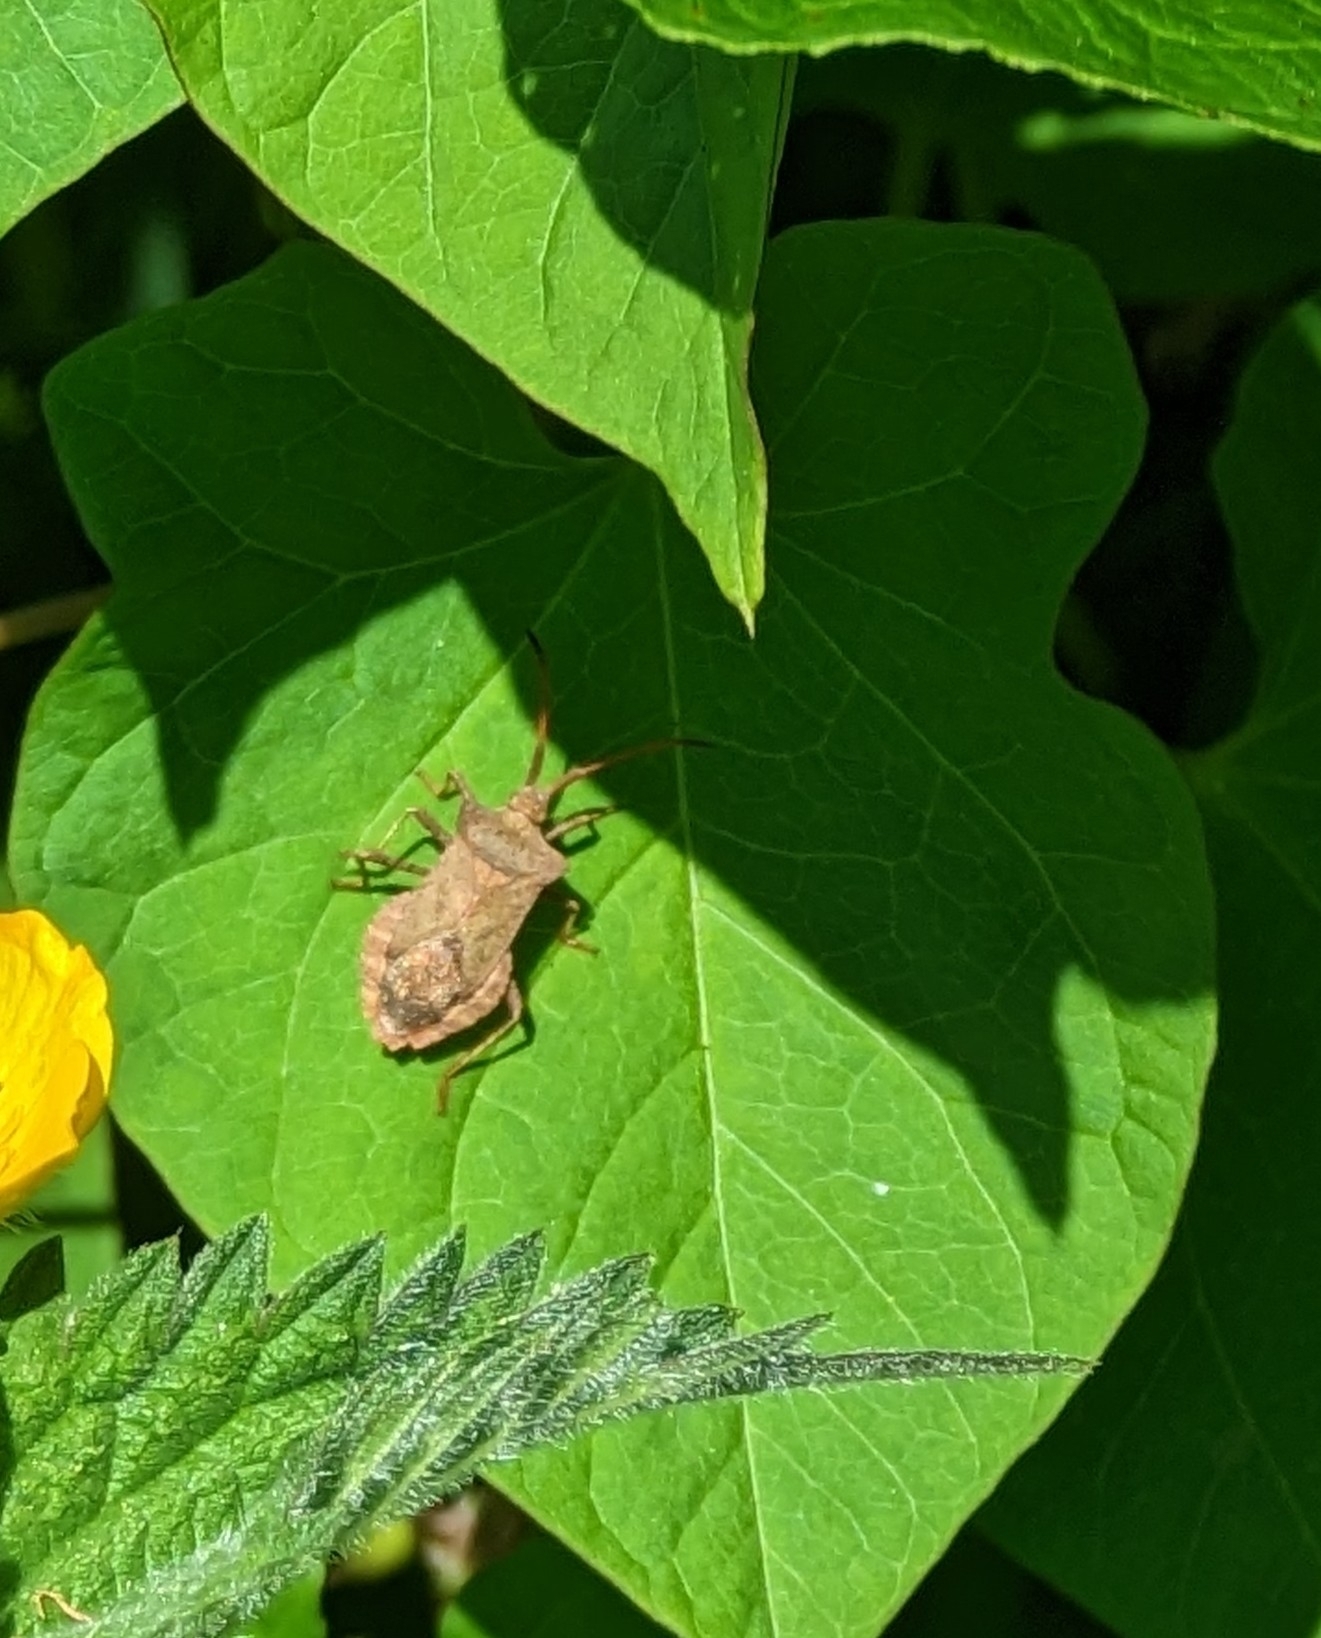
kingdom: Animalia
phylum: Arthropoda
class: Insecta
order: Hemiptera
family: Coreidae
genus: Coreus
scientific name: Coreus marginatus
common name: Dock bug
